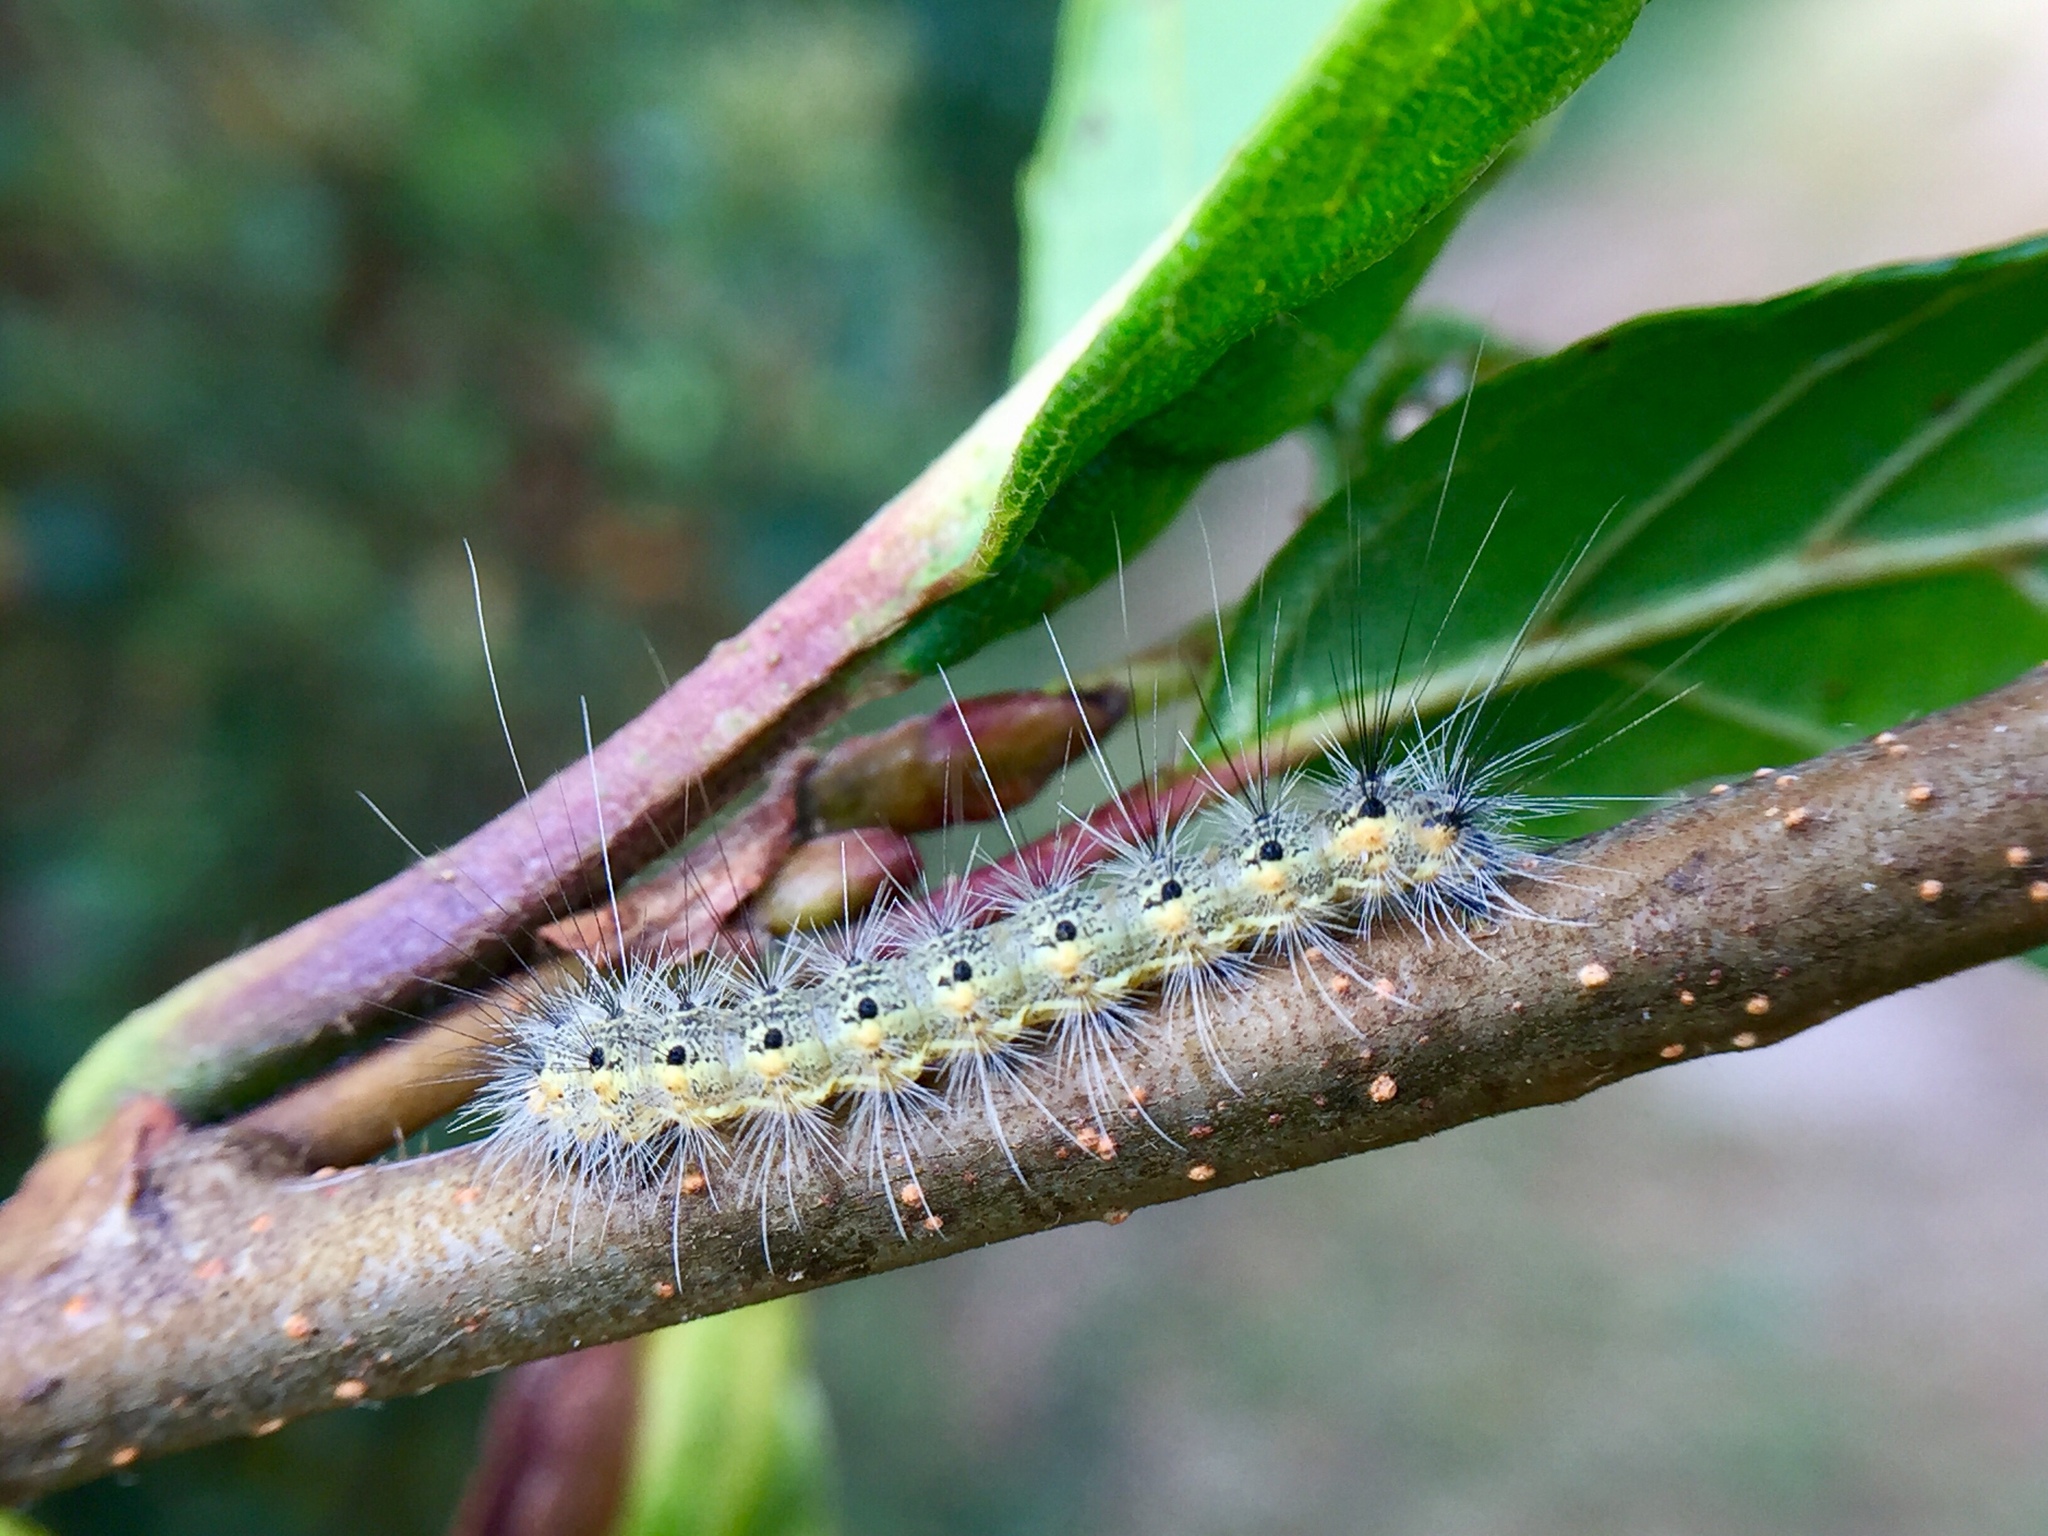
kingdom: Animalia
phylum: Arthropoda
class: Insecta
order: Lepidoptera
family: Erebidae
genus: Hyphantria
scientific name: Hyphantria cunea
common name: American white moth
